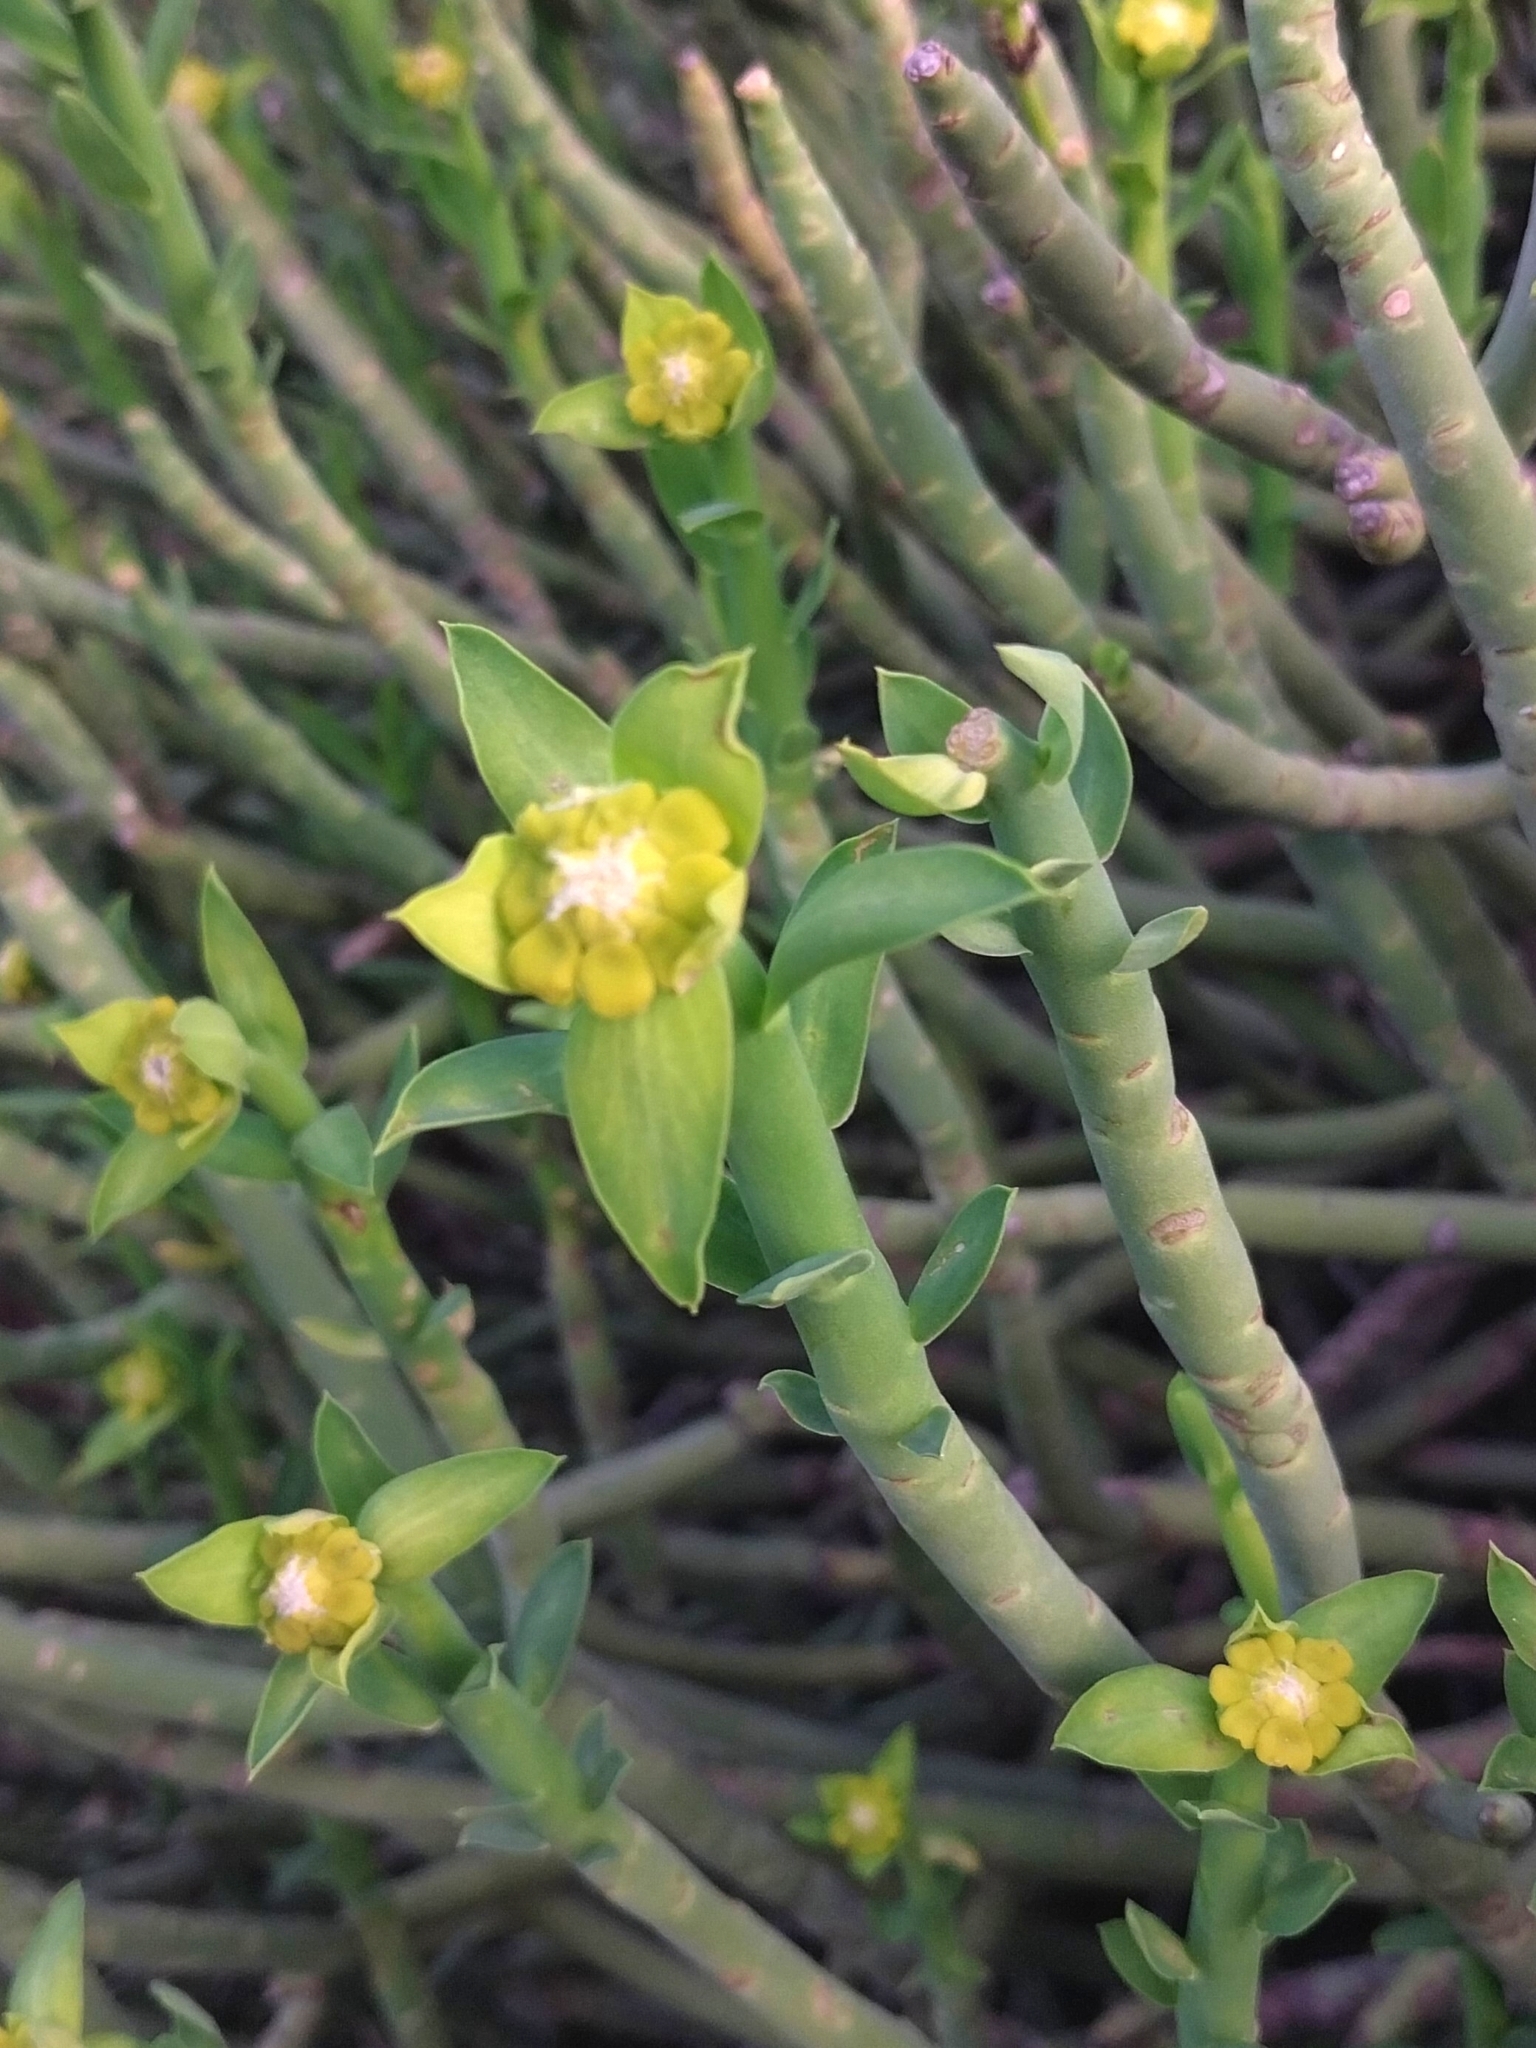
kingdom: Plantae
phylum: Tracheophyta
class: Magnoliopsida
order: Malpighiales
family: Euphorbiaceae
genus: Euphorbia
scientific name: Euphorbia mauritanica
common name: Jackal's-food
